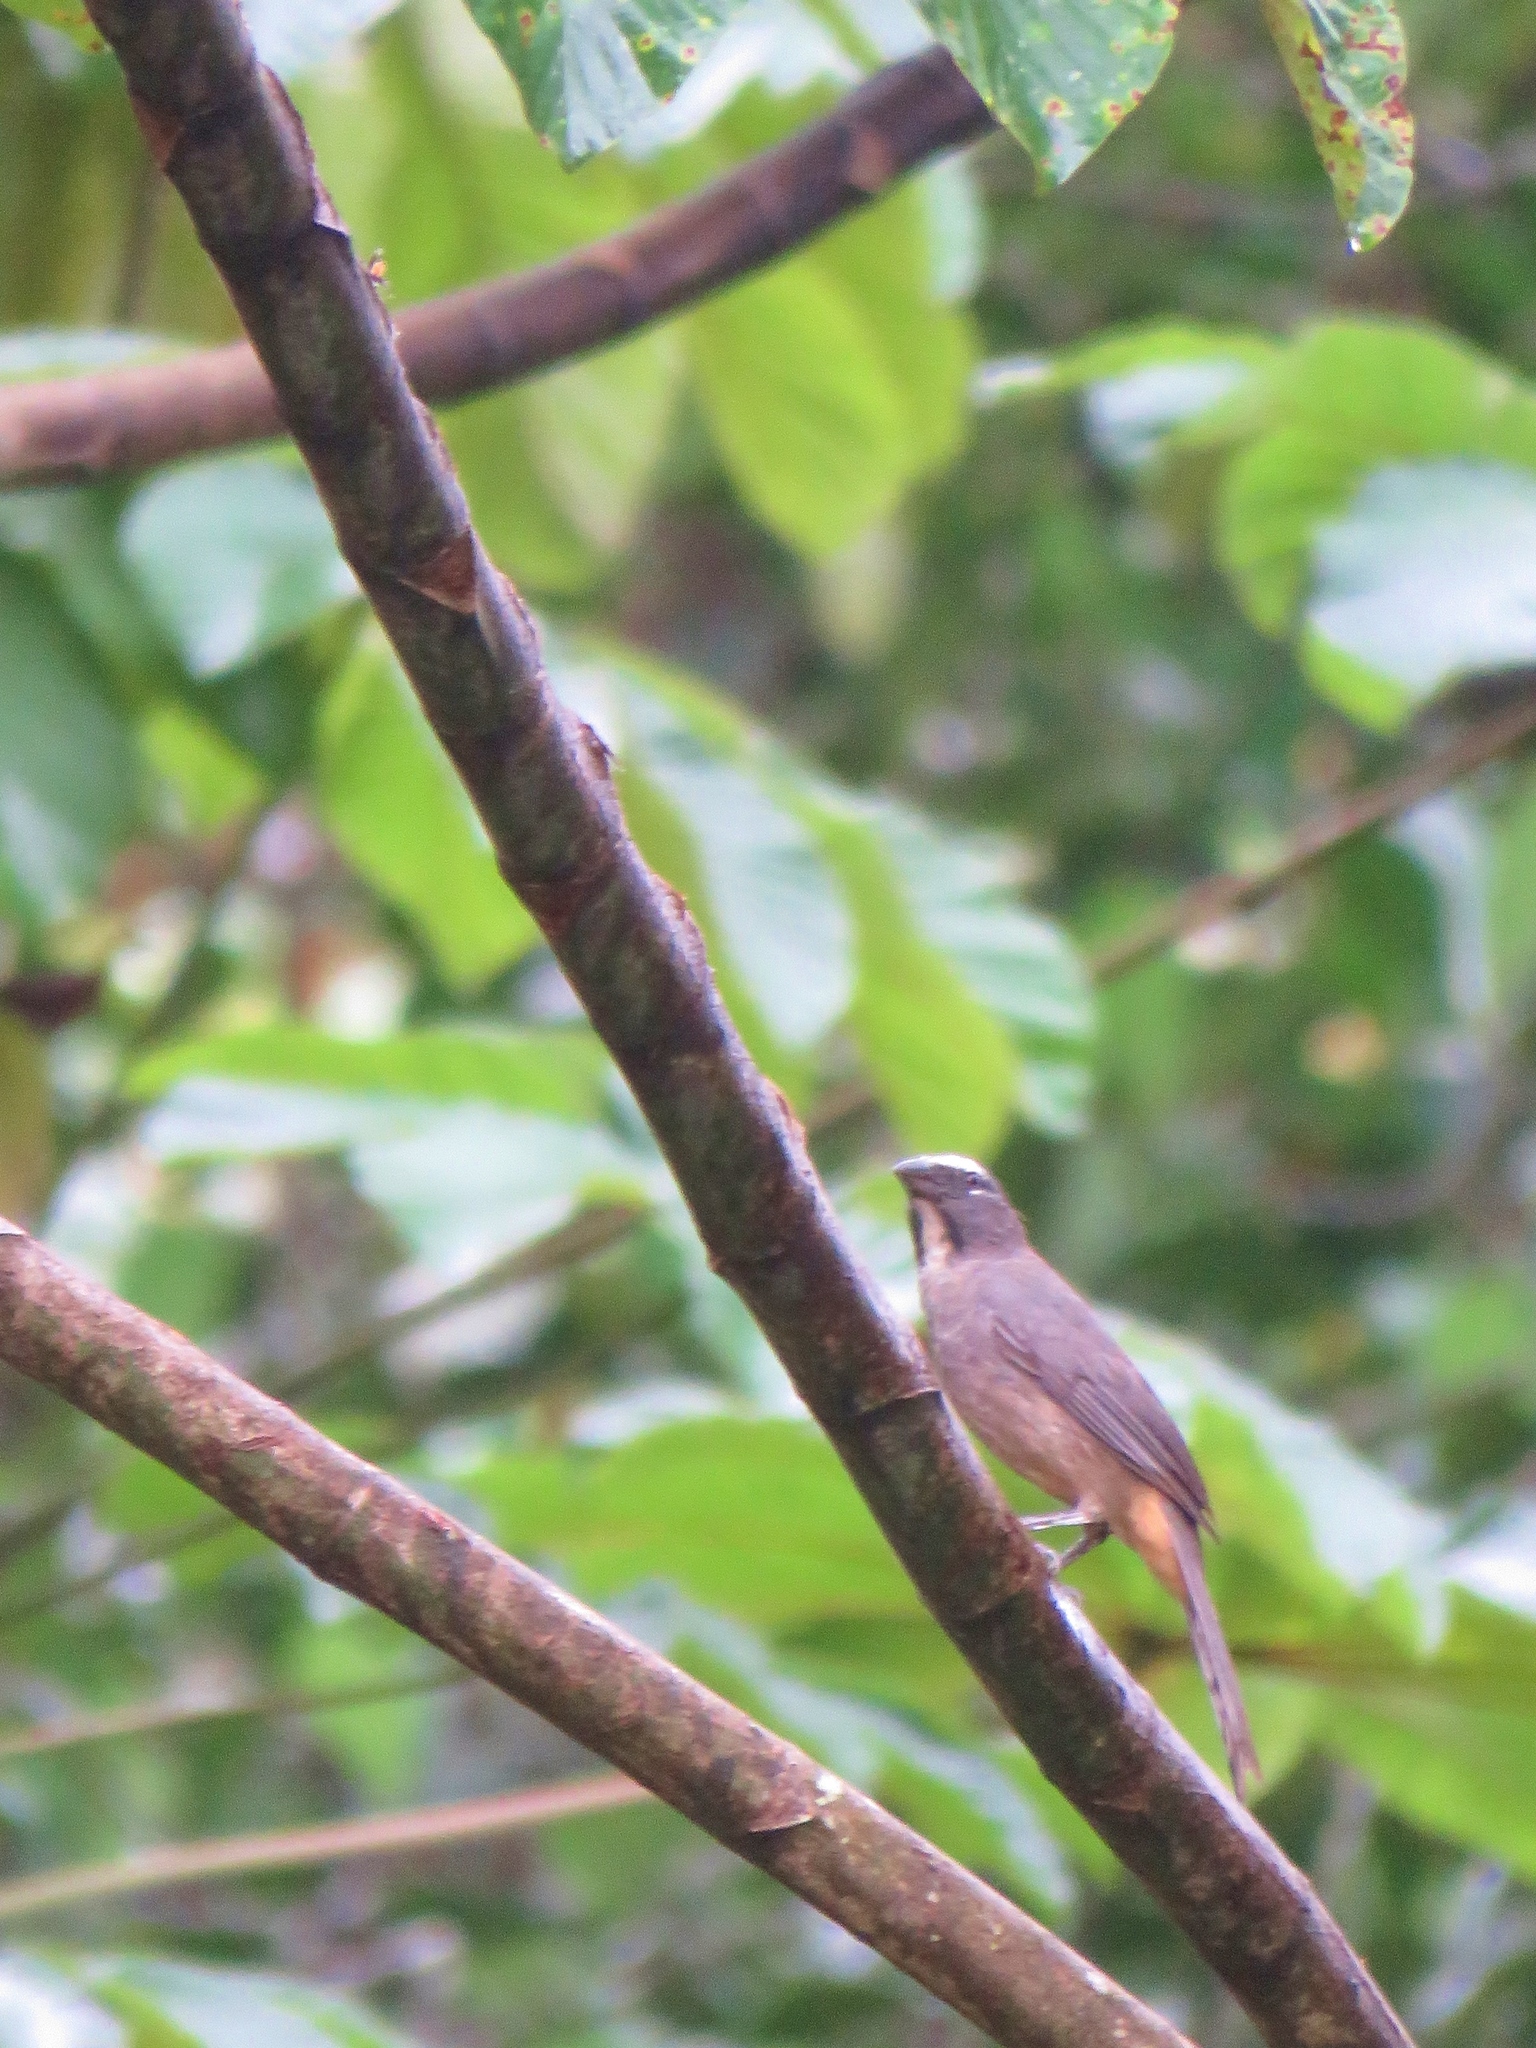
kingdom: Animalia
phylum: Chordata
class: Aves
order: Passeriformes
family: Thraupidae
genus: Saltator
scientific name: Saltator grandis
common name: Cinnamon-bellied saltator
